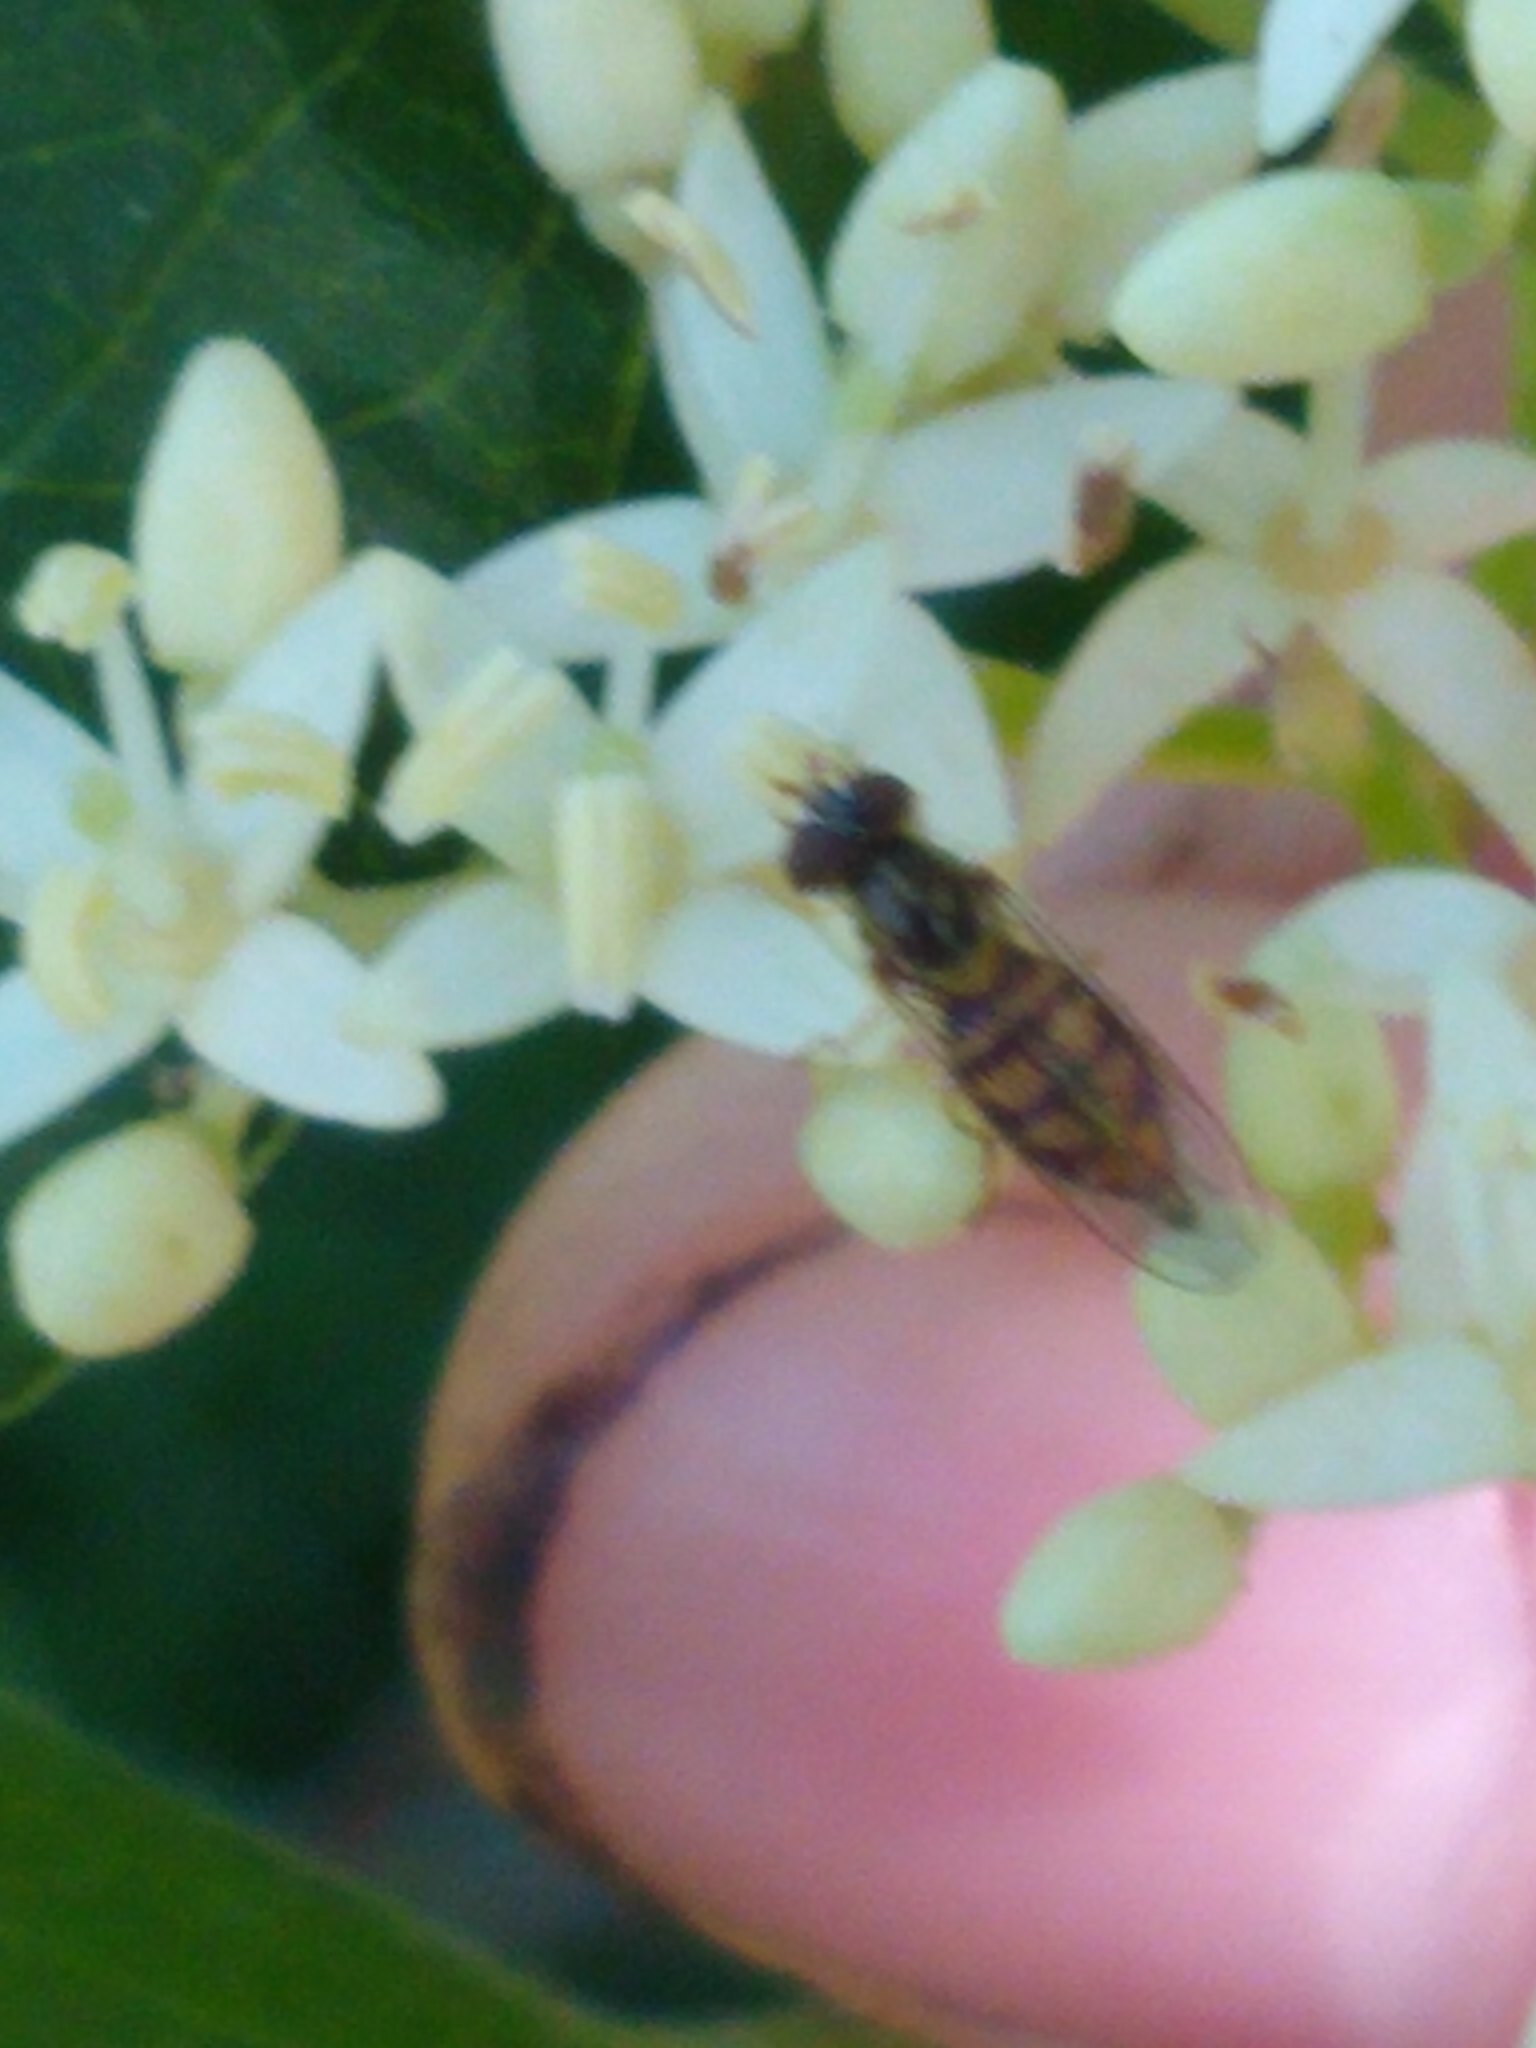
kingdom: Animalia
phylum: Arthropoda
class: Insecta
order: Diptera
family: Syrphidae
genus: Toxomerus
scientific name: Toxomerus marginatus
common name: Syrphid fly
